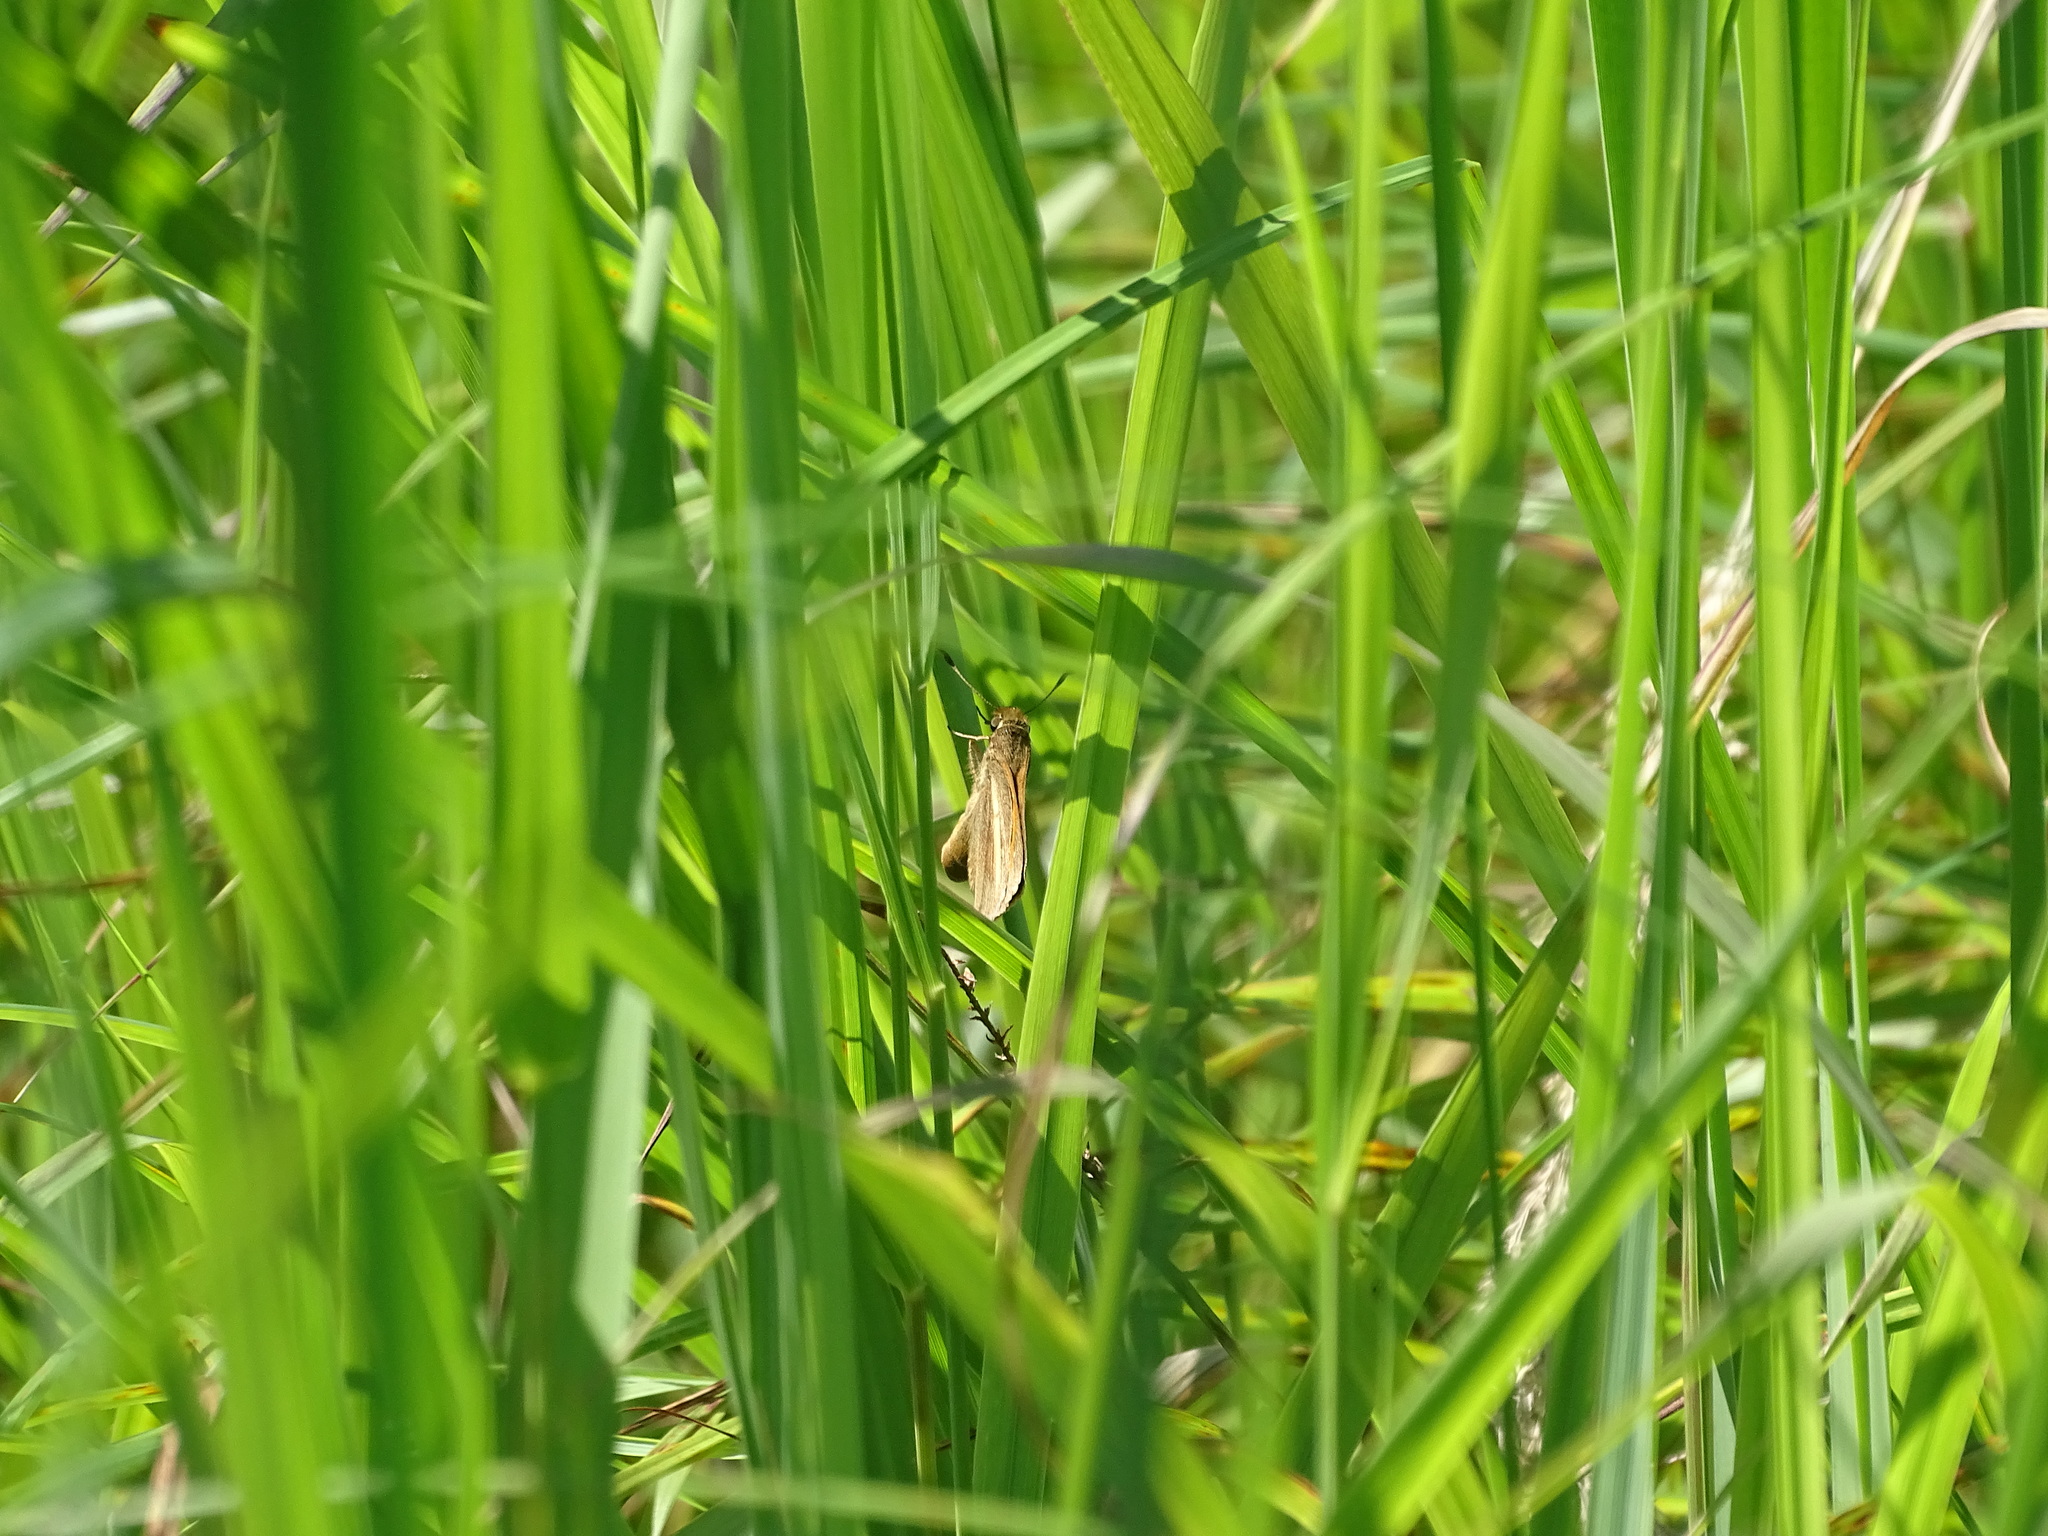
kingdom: Animalia
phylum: Arthropoda
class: Insecta
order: Lepidoptera
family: Hesperiidae
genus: Poanes
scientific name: Poanes viator
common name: Broad-winged skipper
